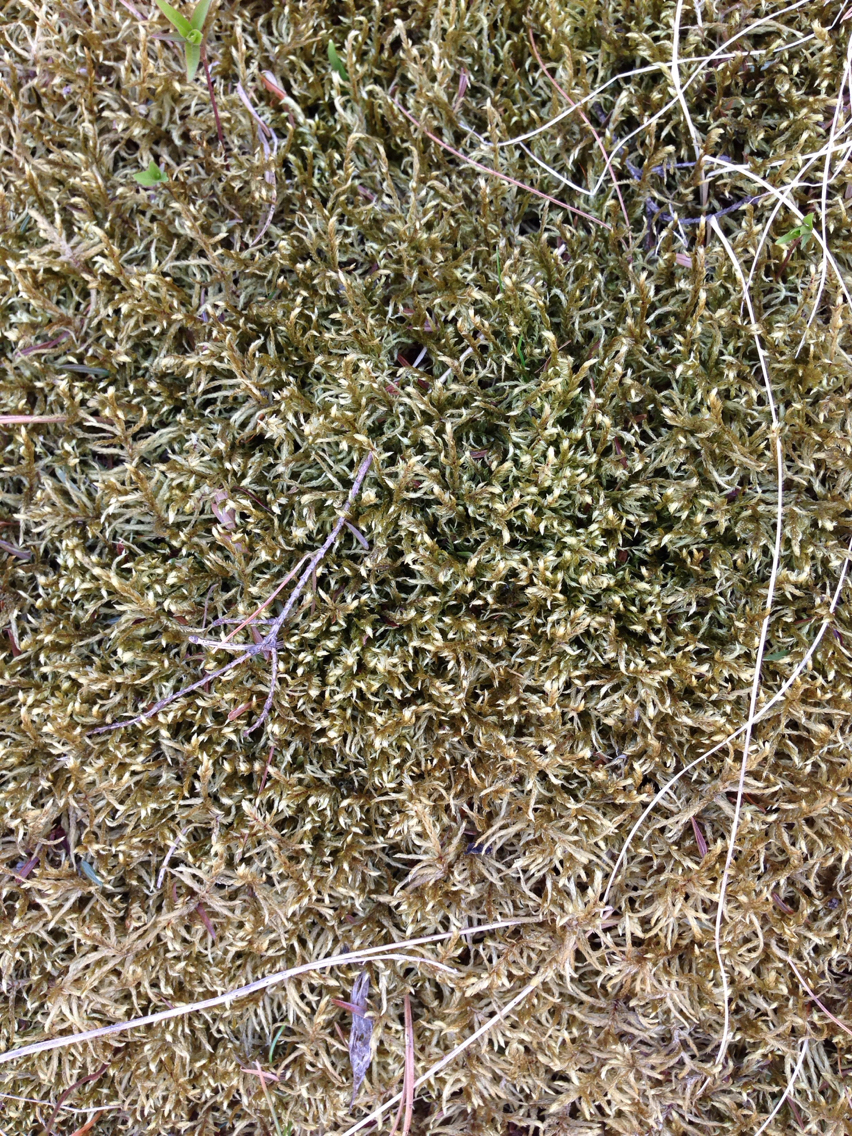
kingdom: Plantae
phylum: Bryophyta
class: Bryopsida
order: Hypnales
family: Hylocomiaceae
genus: Pleurozium
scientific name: Pleurozium schreberi
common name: Red-stemmed feather moss
